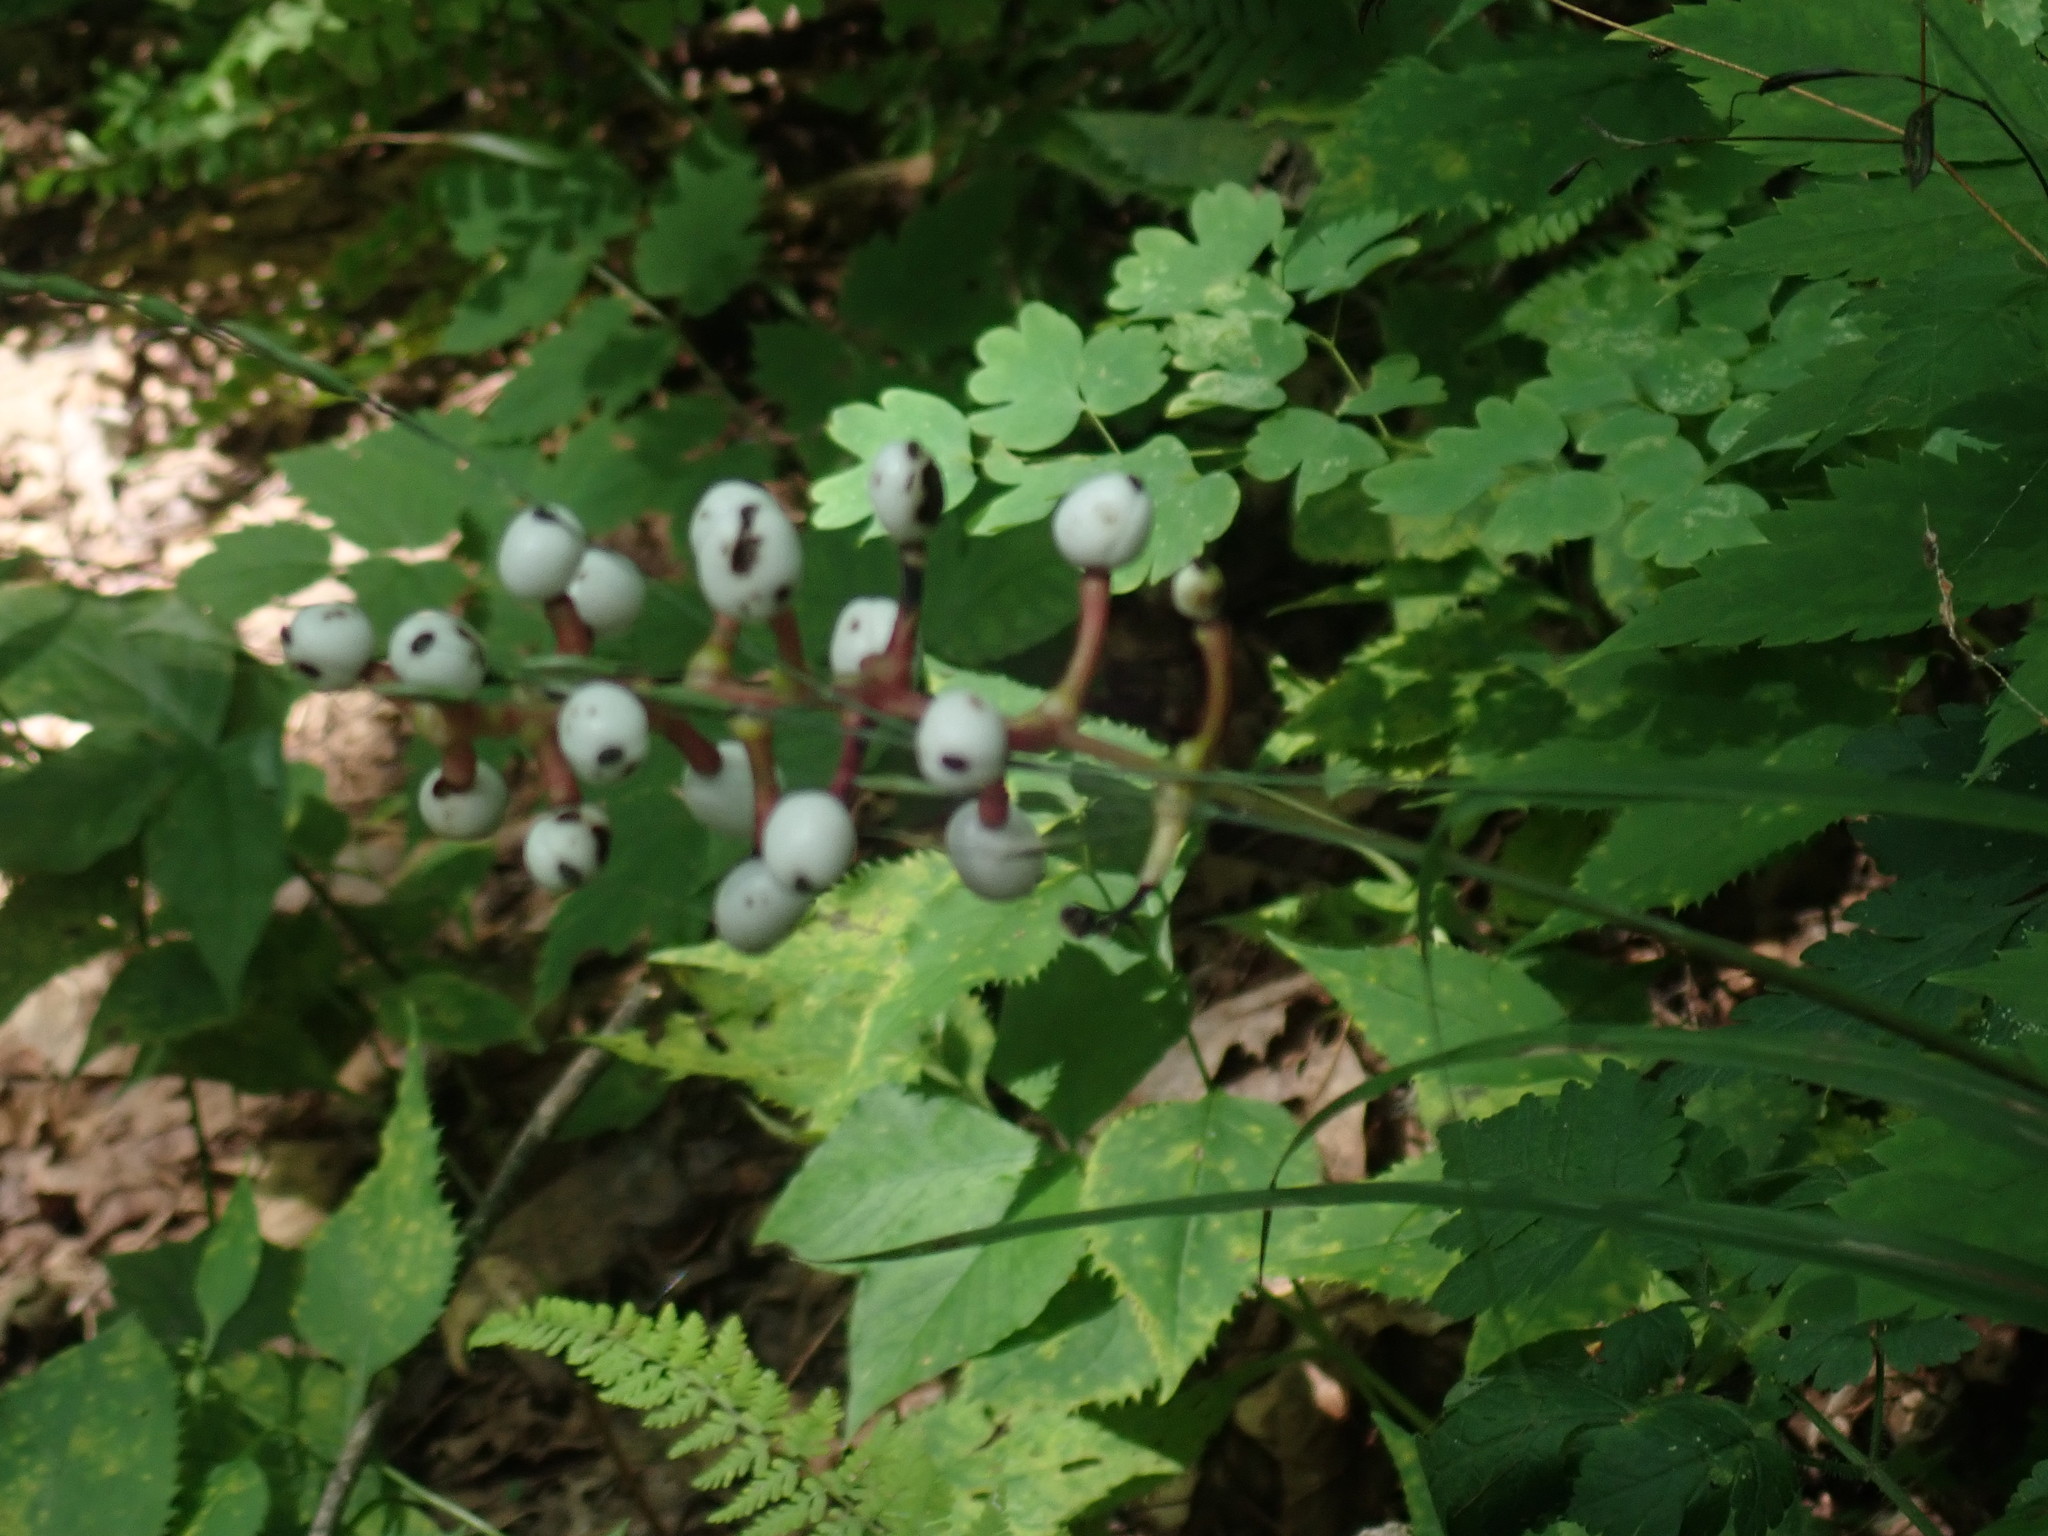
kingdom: Plantae
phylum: Tracheophyta
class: Magnoliopsida
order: Ranunculales
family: Ranunculaceae
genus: Actaea
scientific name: Actaea pachypoda
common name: Doll's-eyes
